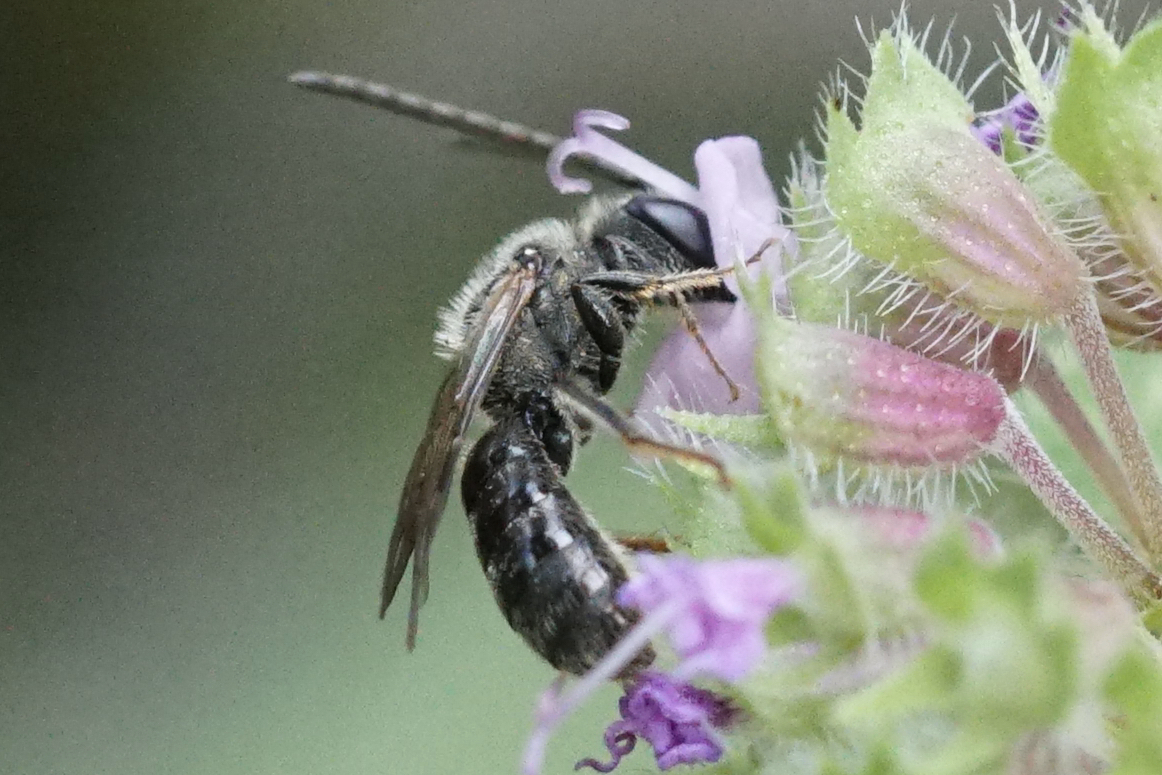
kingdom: Animalia
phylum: Arthropoda
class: Insecta
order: Hymenoptera
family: Halictidae
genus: Lasioglossum
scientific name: Lasioglossum
